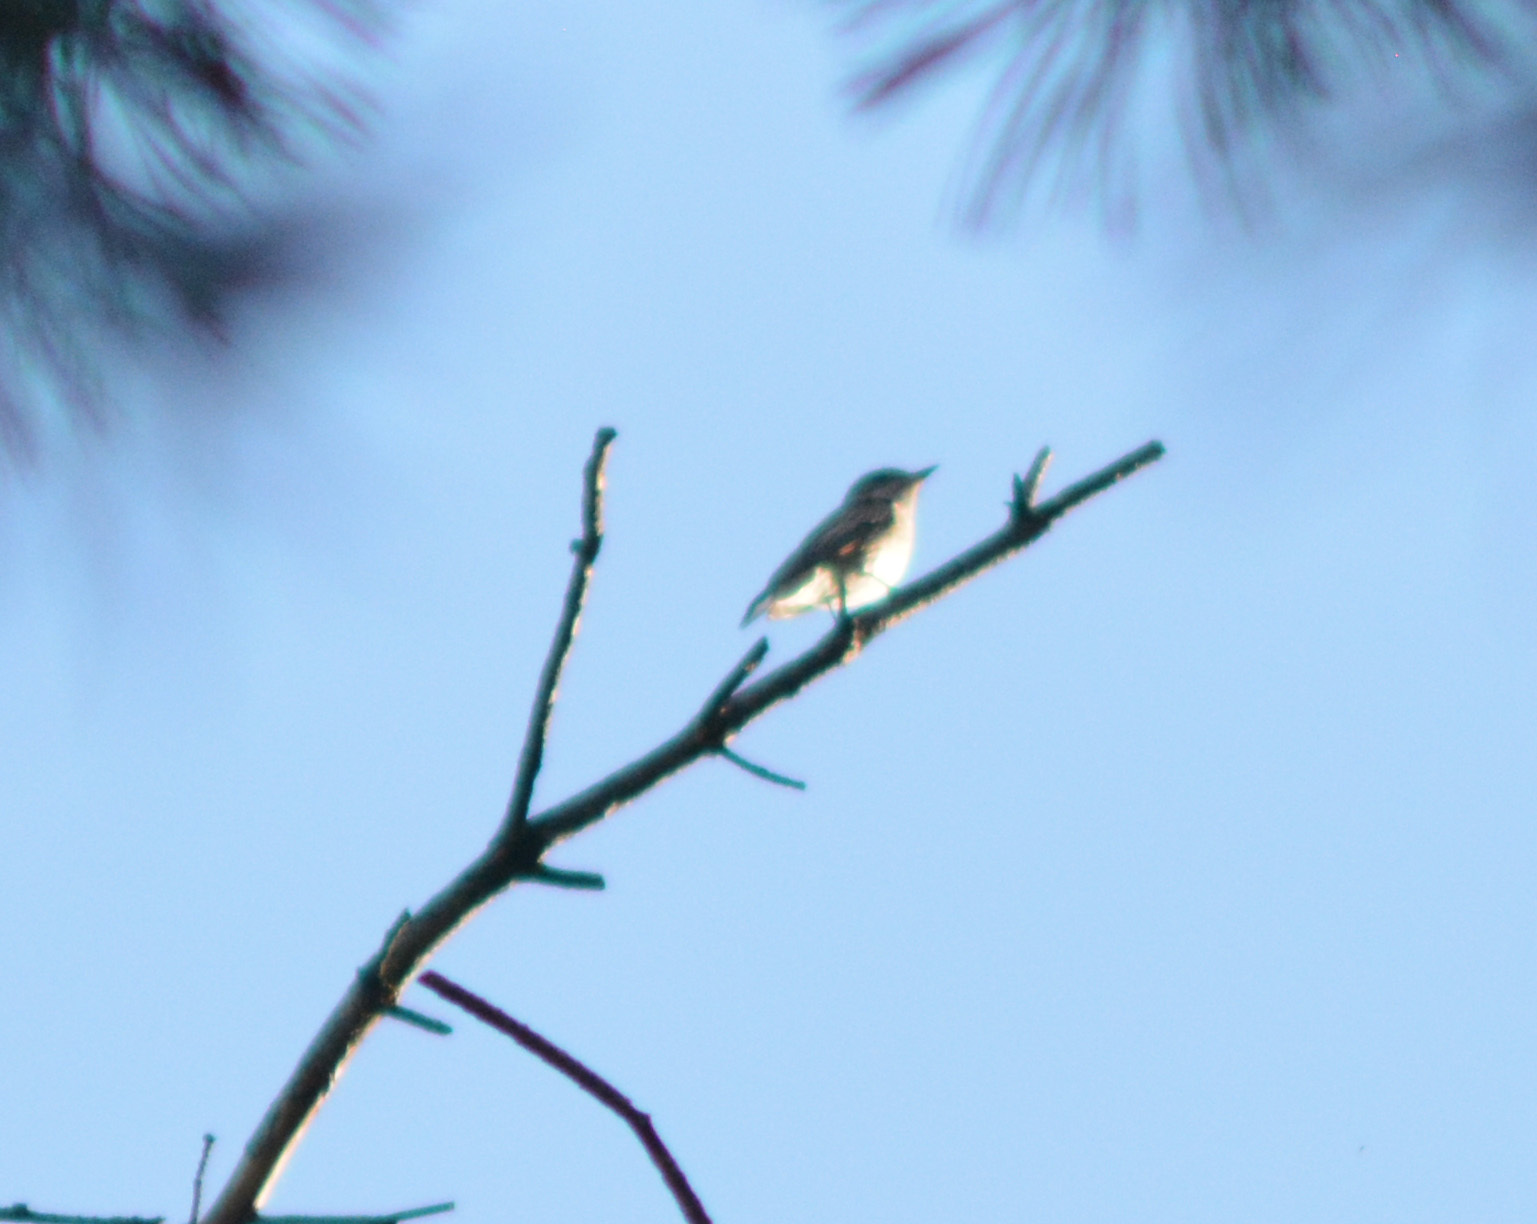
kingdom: Animalia
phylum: Chordata
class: Aves
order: Passeriformes
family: Muscicapidae
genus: Muscicapa
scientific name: Muscicapa striata
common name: Spotted flycatcher
